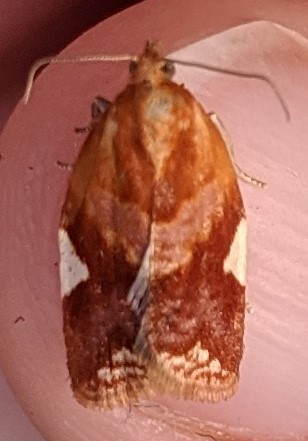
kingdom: Animalia
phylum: Arthropoda
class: Insecta
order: Lepidoptera
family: Tortricidae
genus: Clepsis
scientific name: Clepsis persicana
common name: White triangle tortrix
